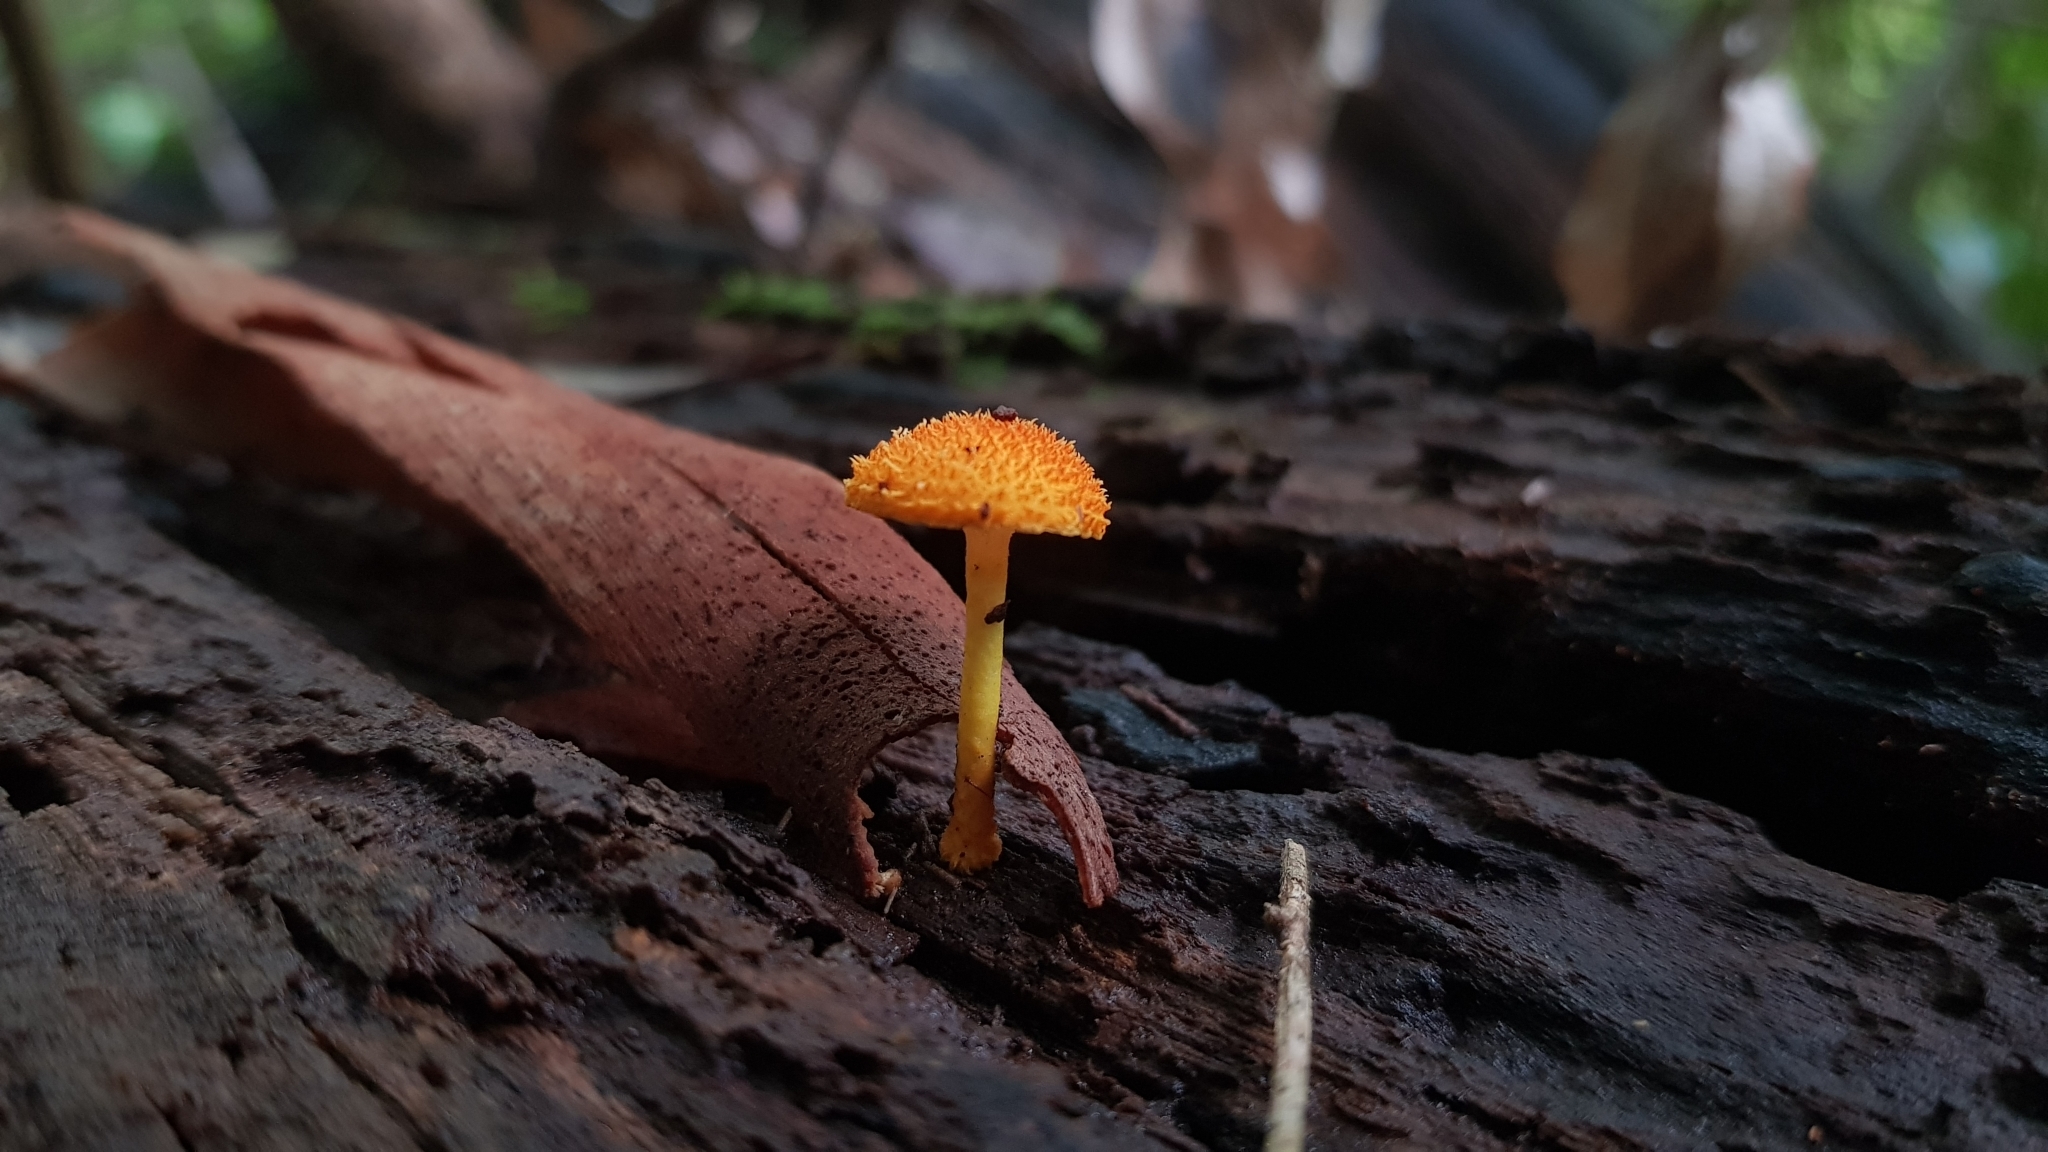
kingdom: Fungi
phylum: Basidiomycota
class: Agaricomycetes
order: Agaricales
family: Physalacriaceae
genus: Cyptotrama
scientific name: Cyptotrama asprata
